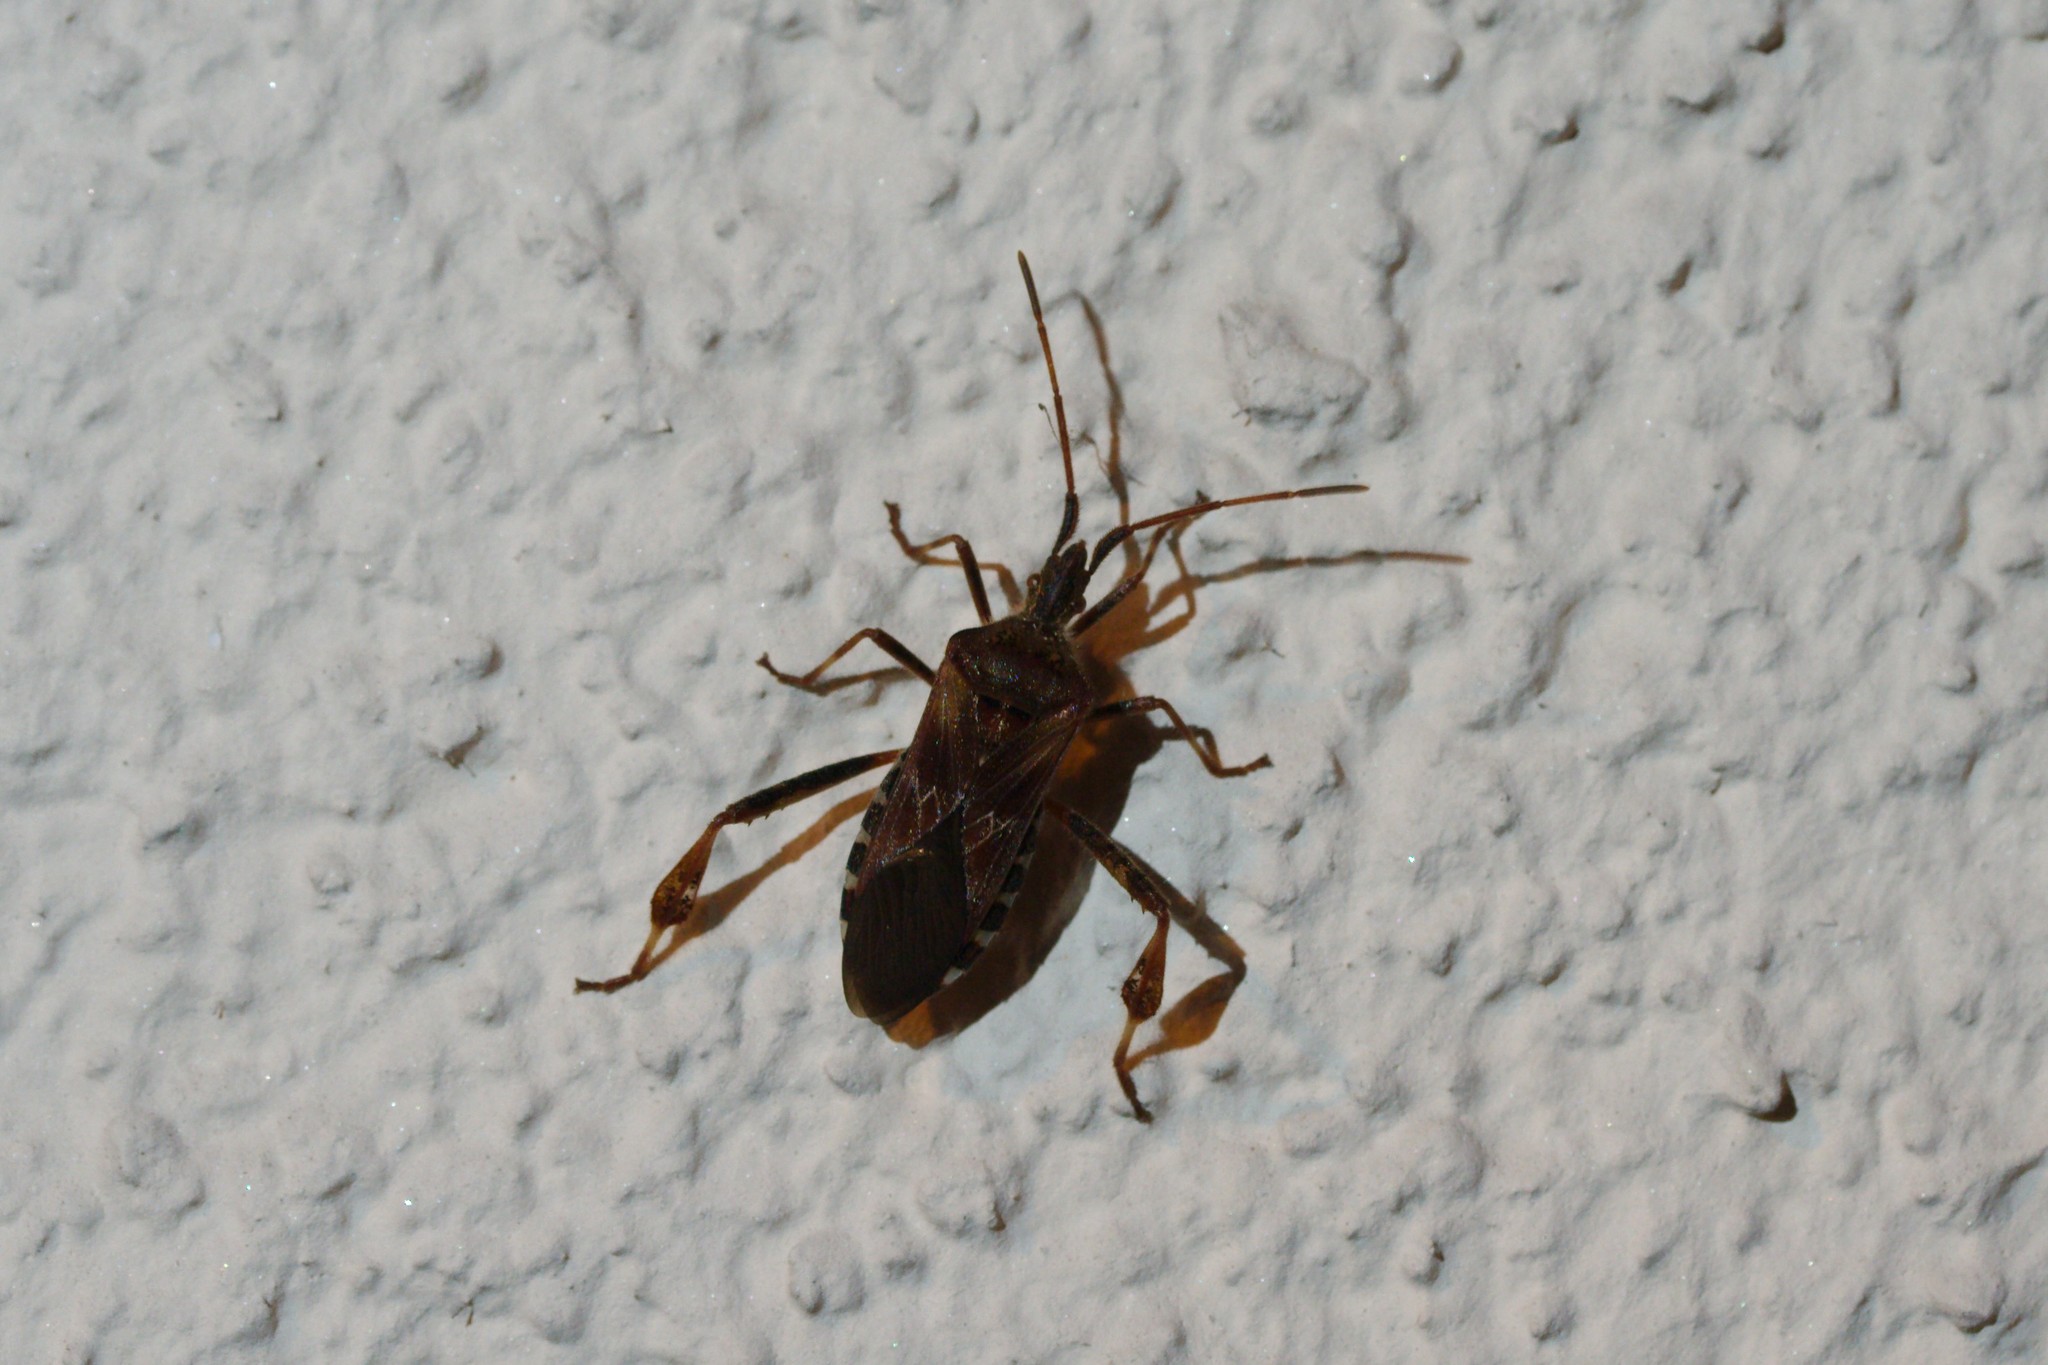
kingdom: Animalia
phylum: Arthropoda
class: Insecta
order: Hemiptera
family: Coreidae
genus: Leptoglossus
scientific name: Leptoglossus occidentalis
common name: Western conifer-seed bug
